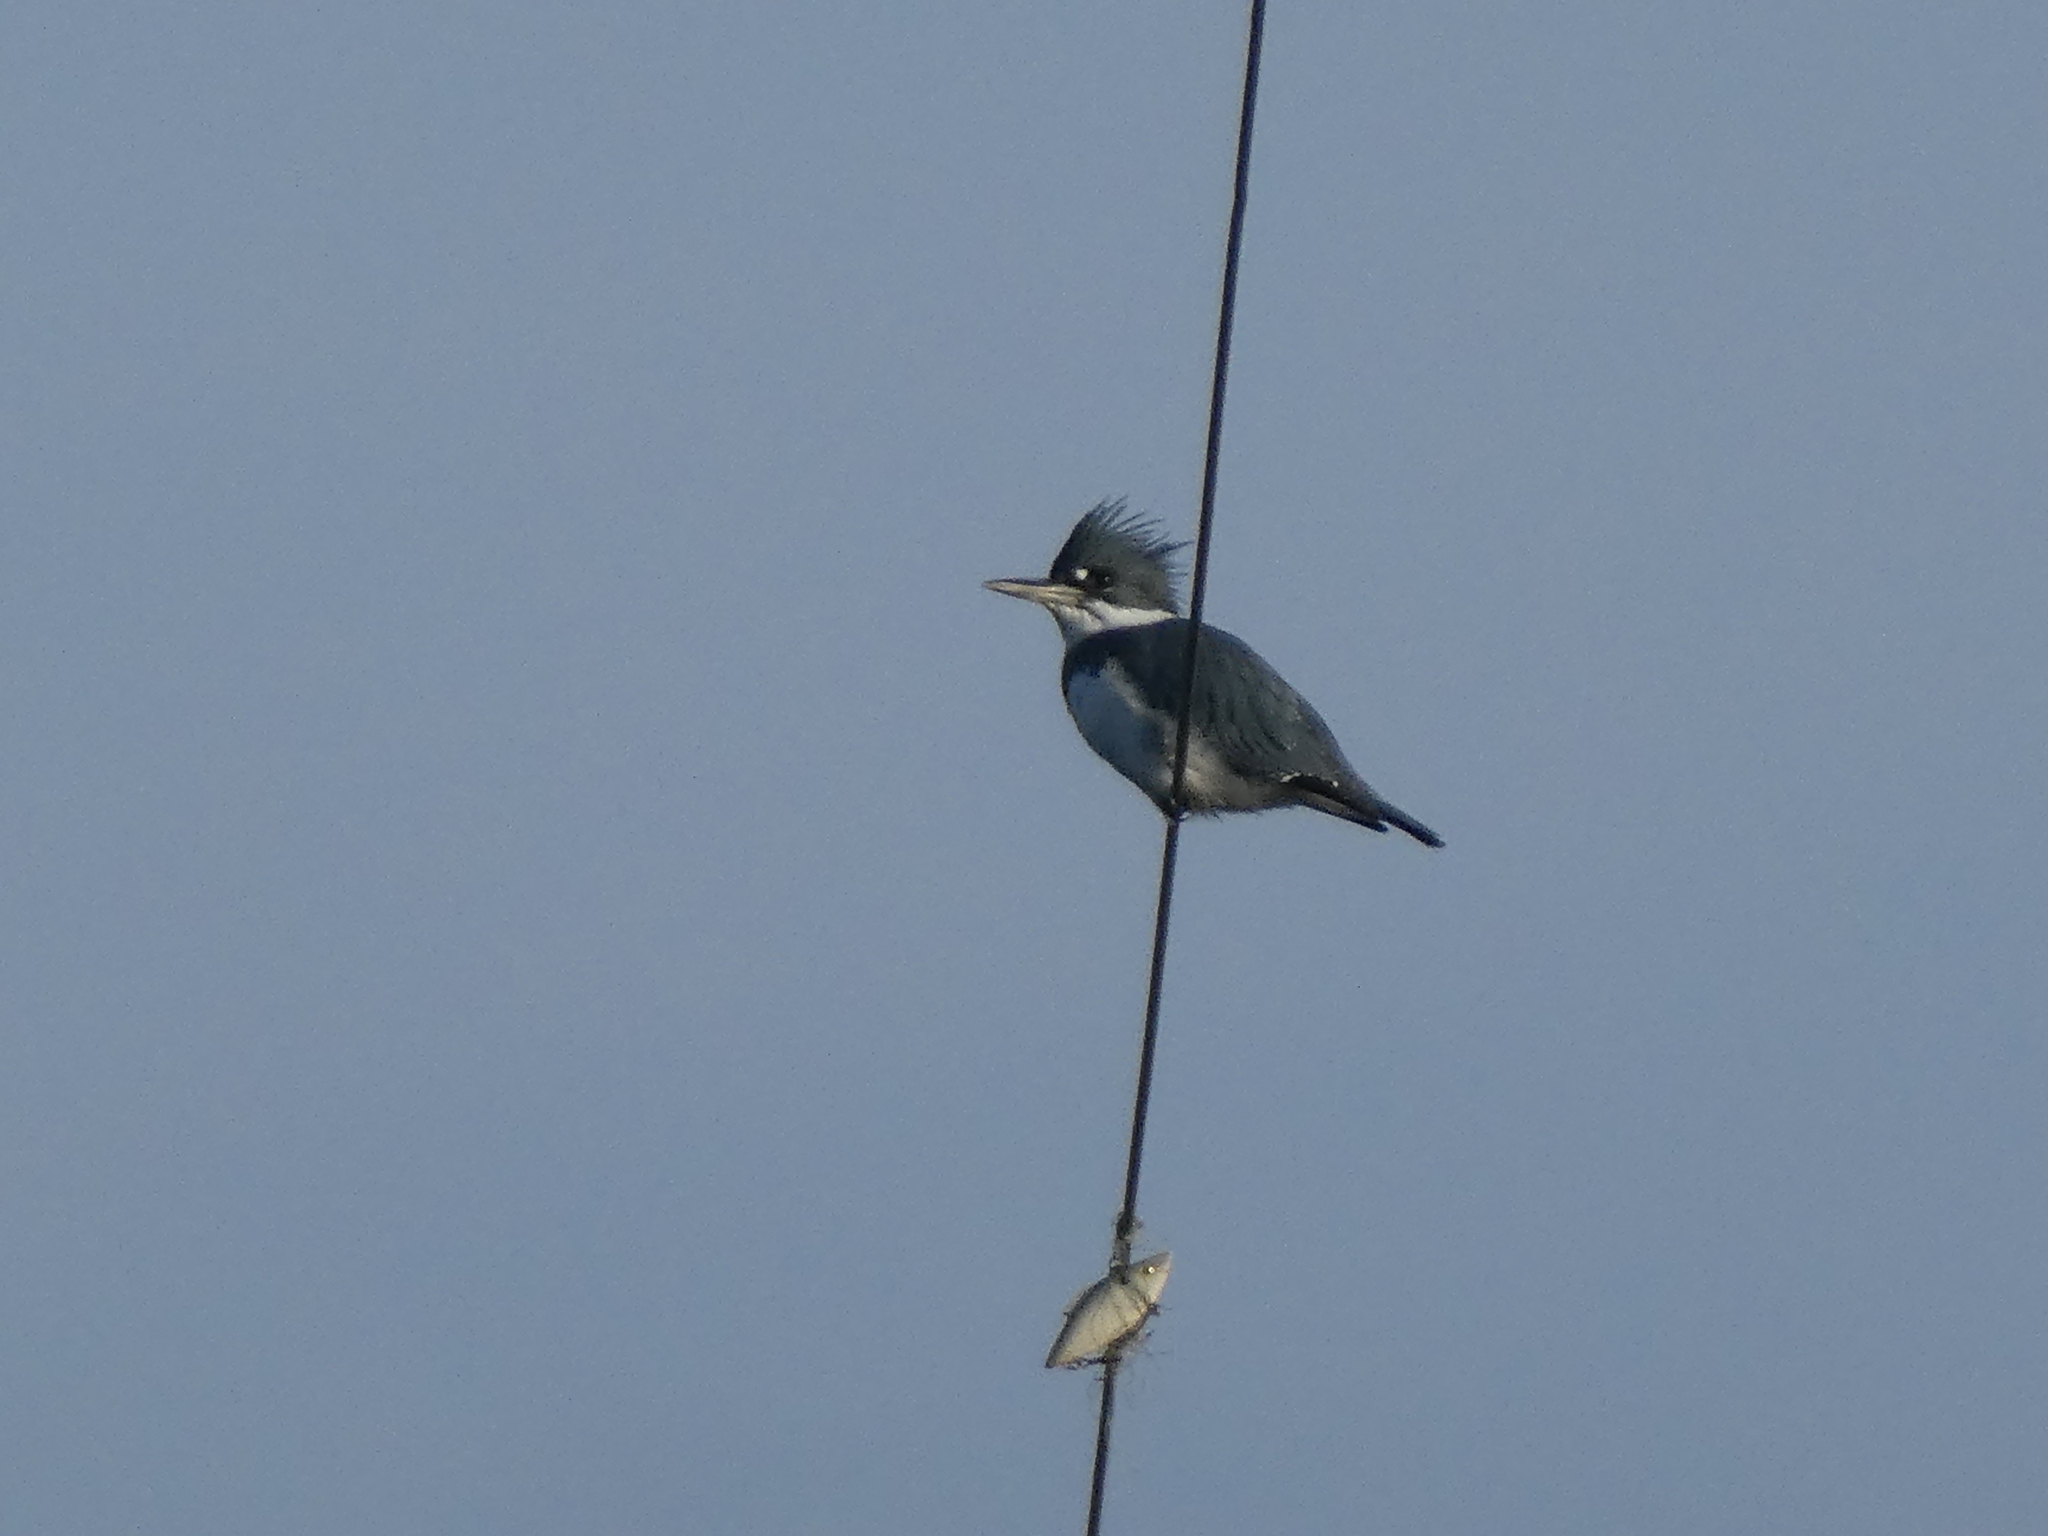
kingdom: Animalia
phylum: Chordata
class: Aves
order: Coraciiformes
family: Alcedinidae
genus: Megaceryle
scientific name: Megaceryle alcyon
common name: Belted kingfisher
